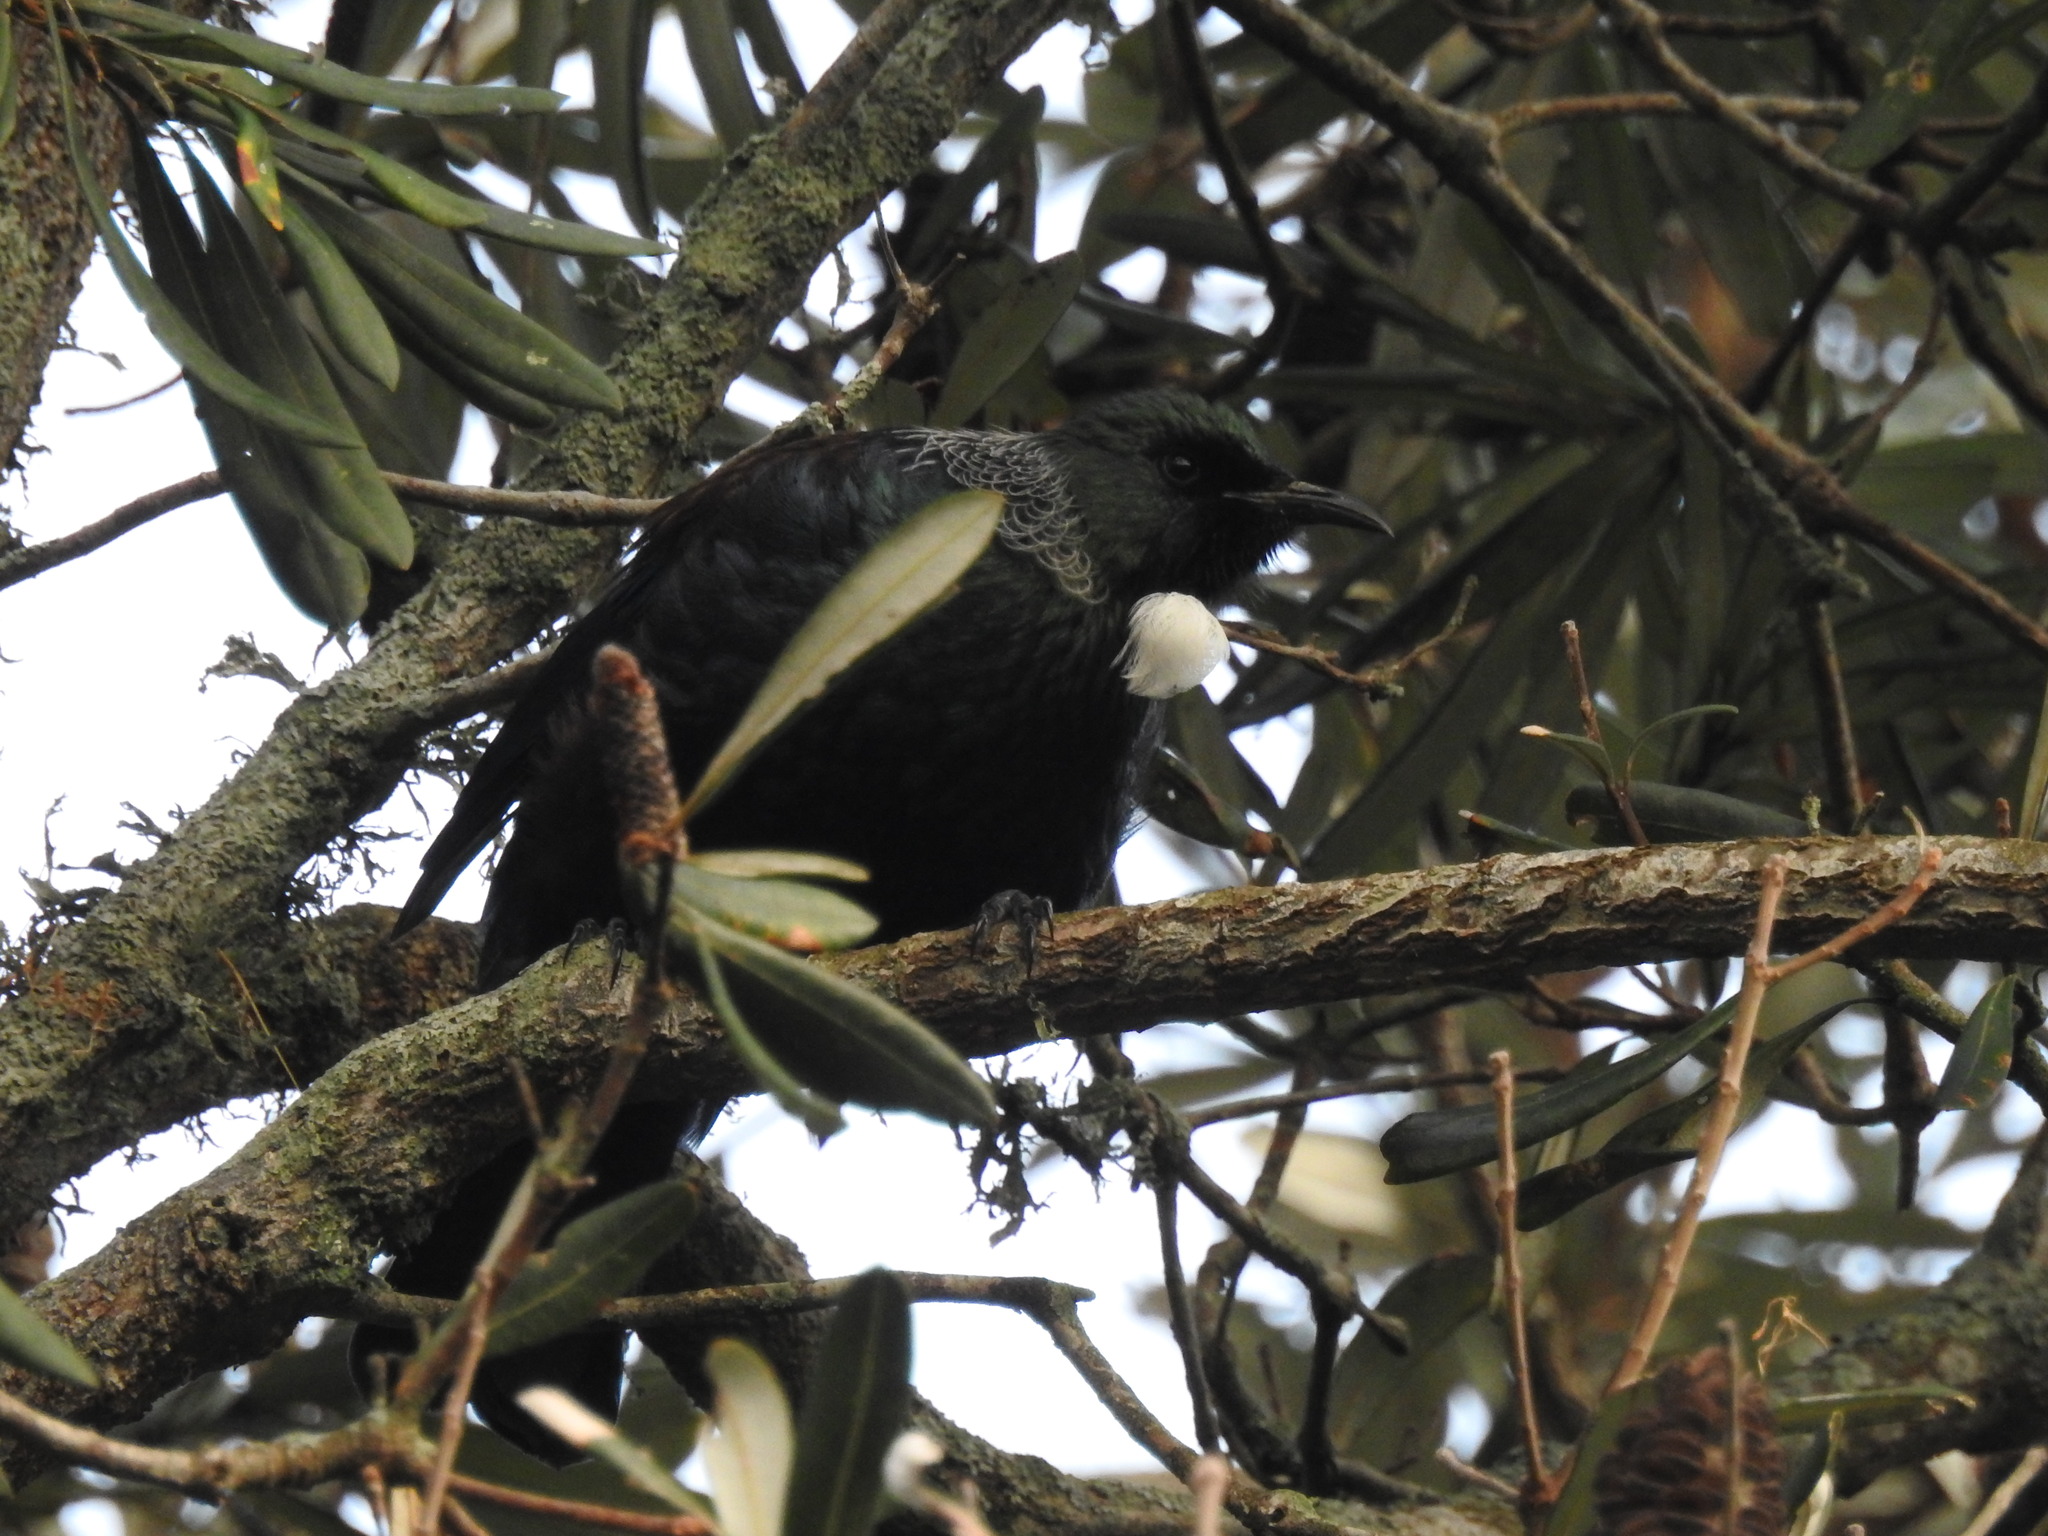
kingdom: Animalia
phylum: Chordata
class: Aves
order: Passeriformes
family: Meliphagidae
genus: Prosthemadera
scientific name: Prosthemadera novaeseelandiae
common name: Tui
